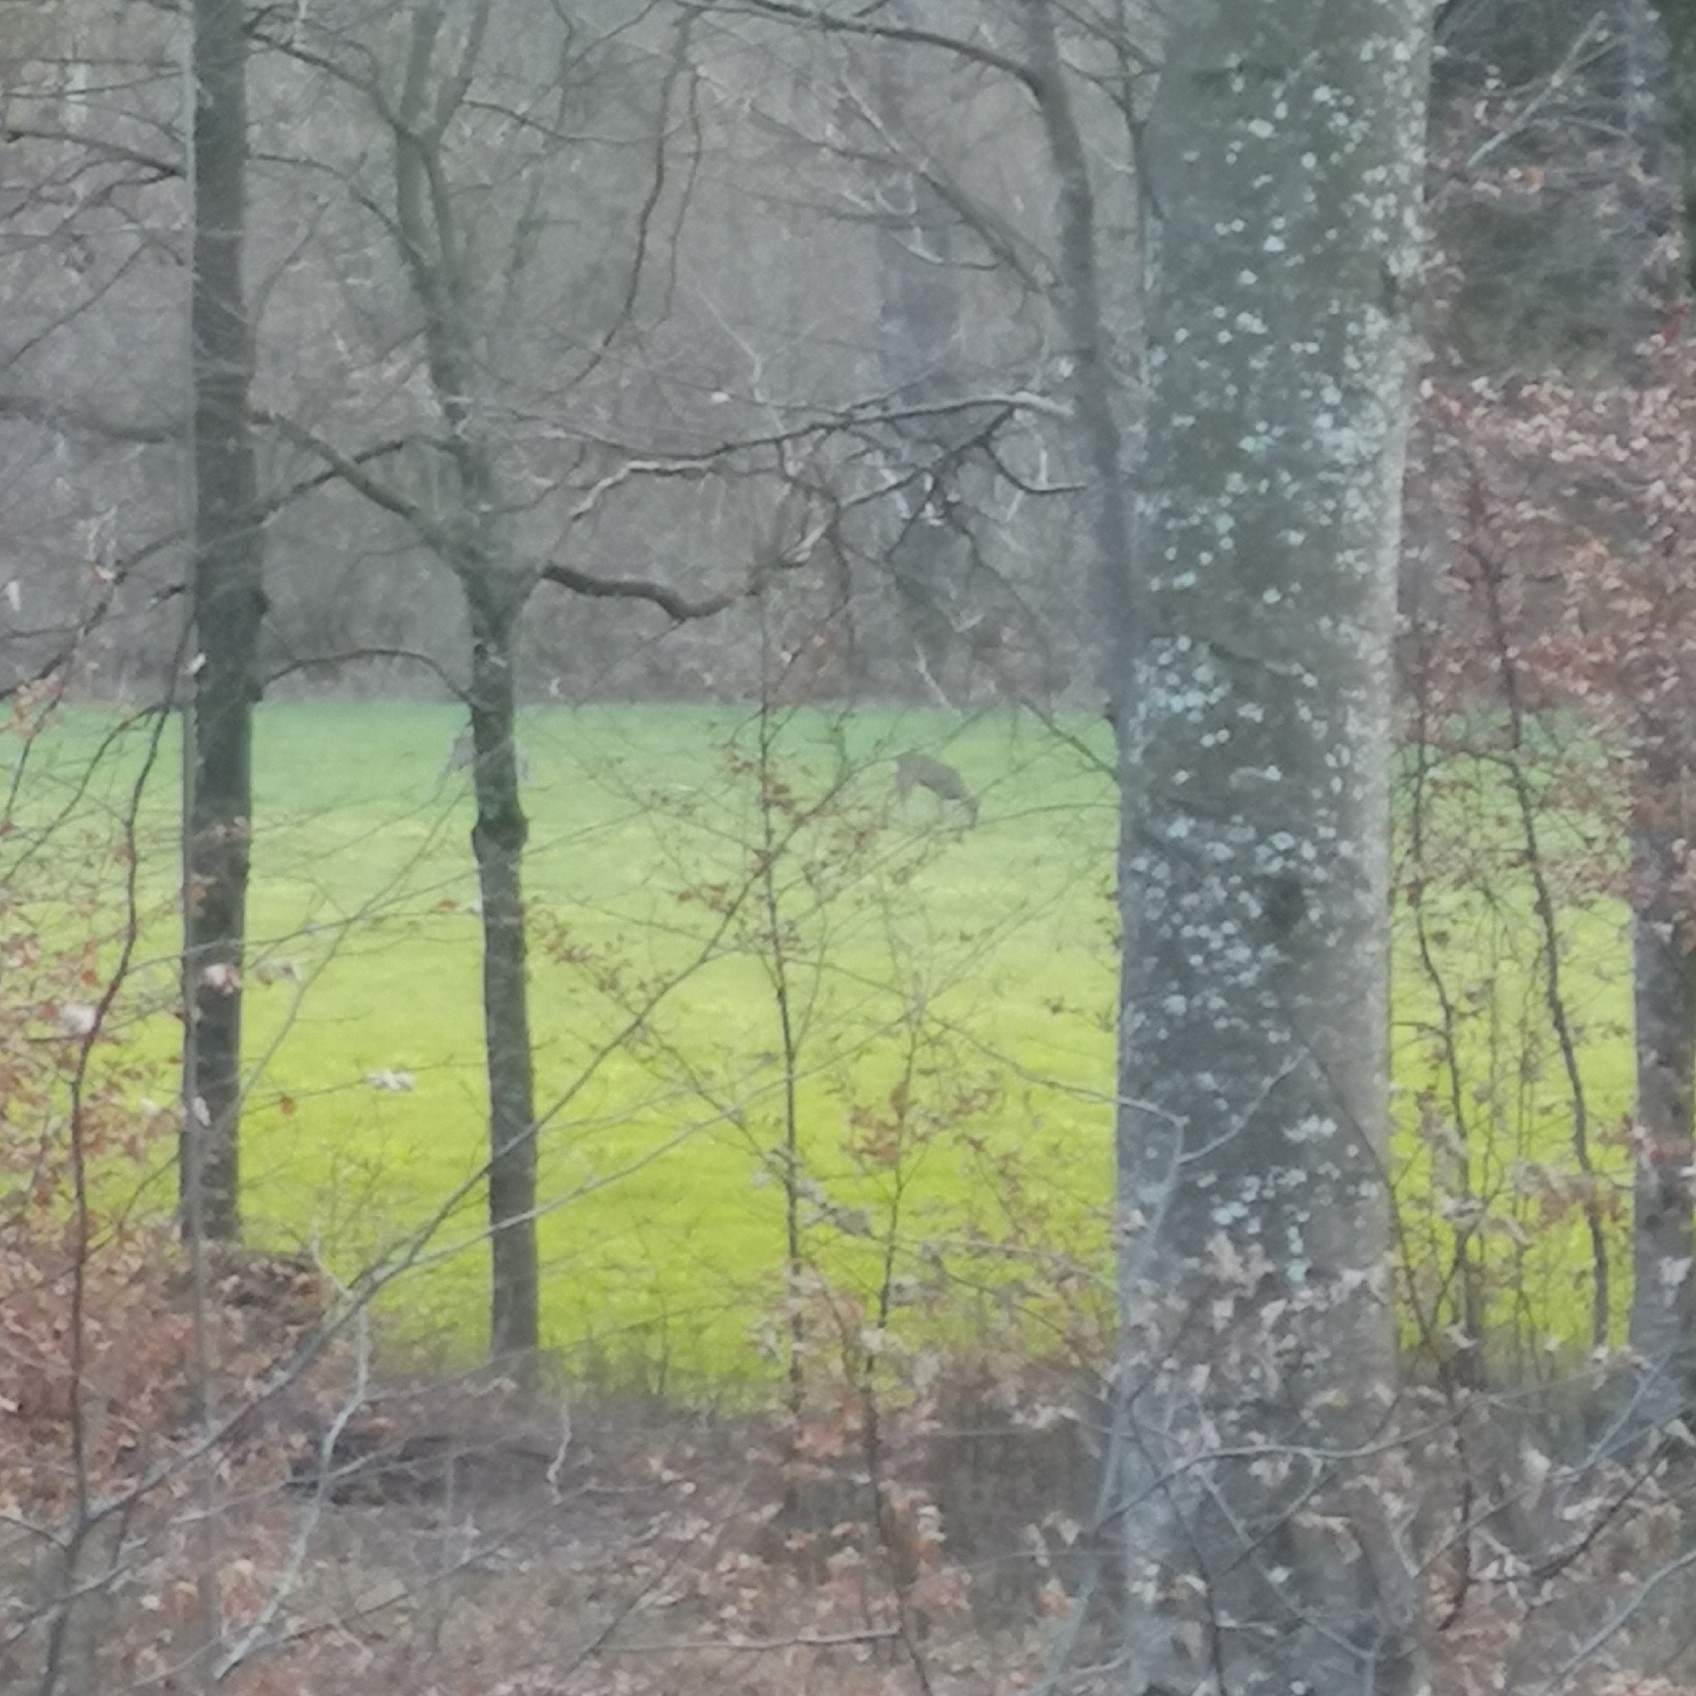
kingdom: Animalia
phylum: Chordata
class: Mammalia
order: Artiodactyla
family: Cervidae
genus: Capreolus
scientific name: Capreolus capreolus
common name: Western roe deer
